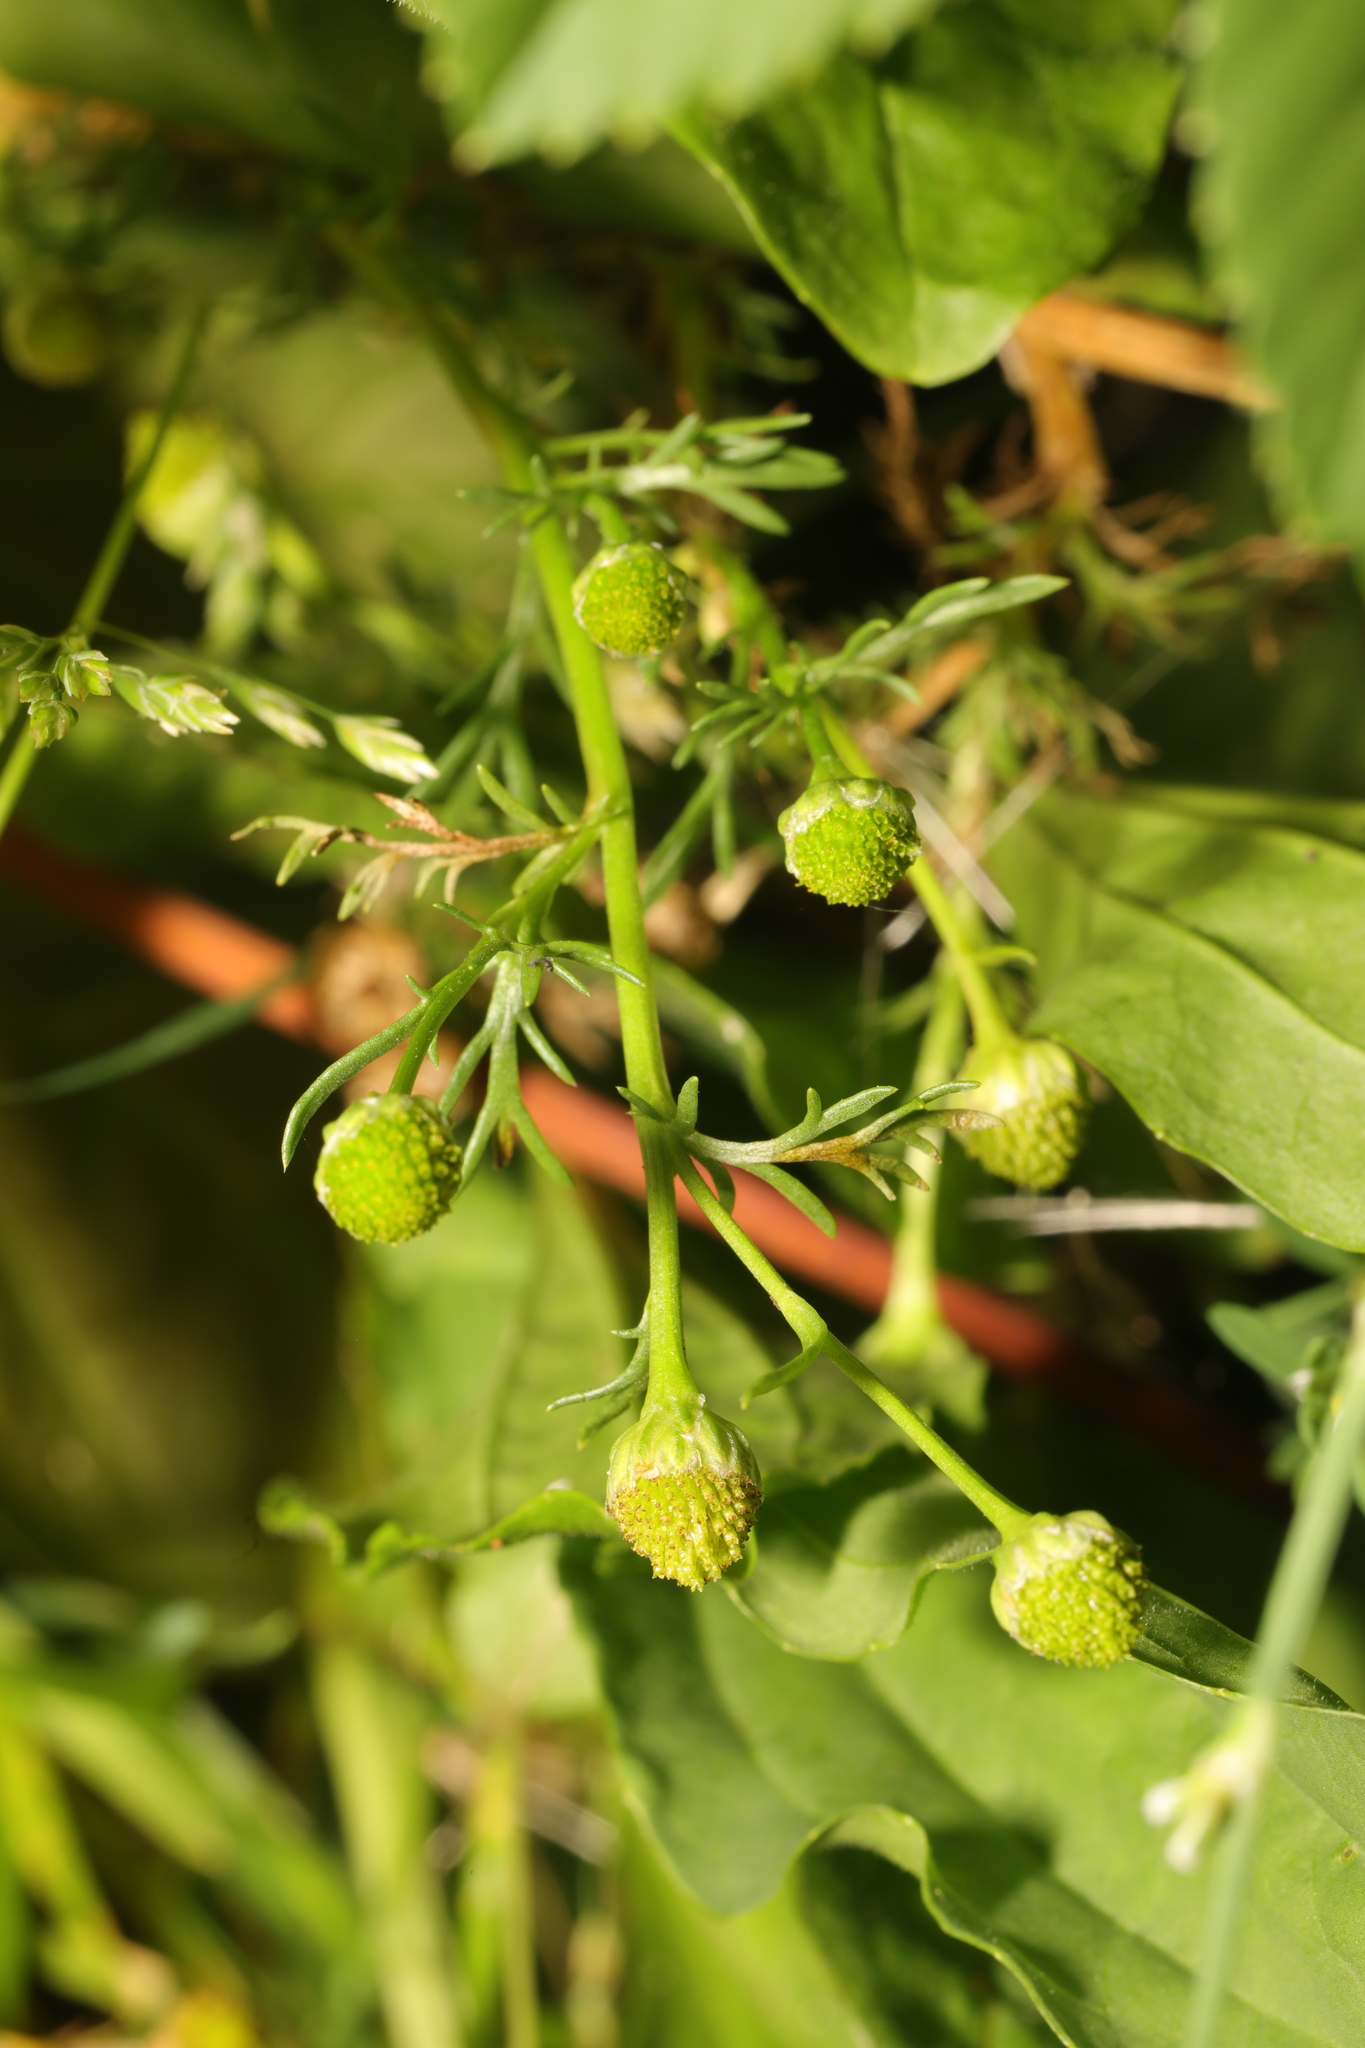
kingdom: Plantae
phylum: Tracheophyta
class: Magnoliopsida
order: Asterales
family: Asteraceae
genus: Matricaria
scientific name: Matricaria discoidea
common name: Disc mayweed
